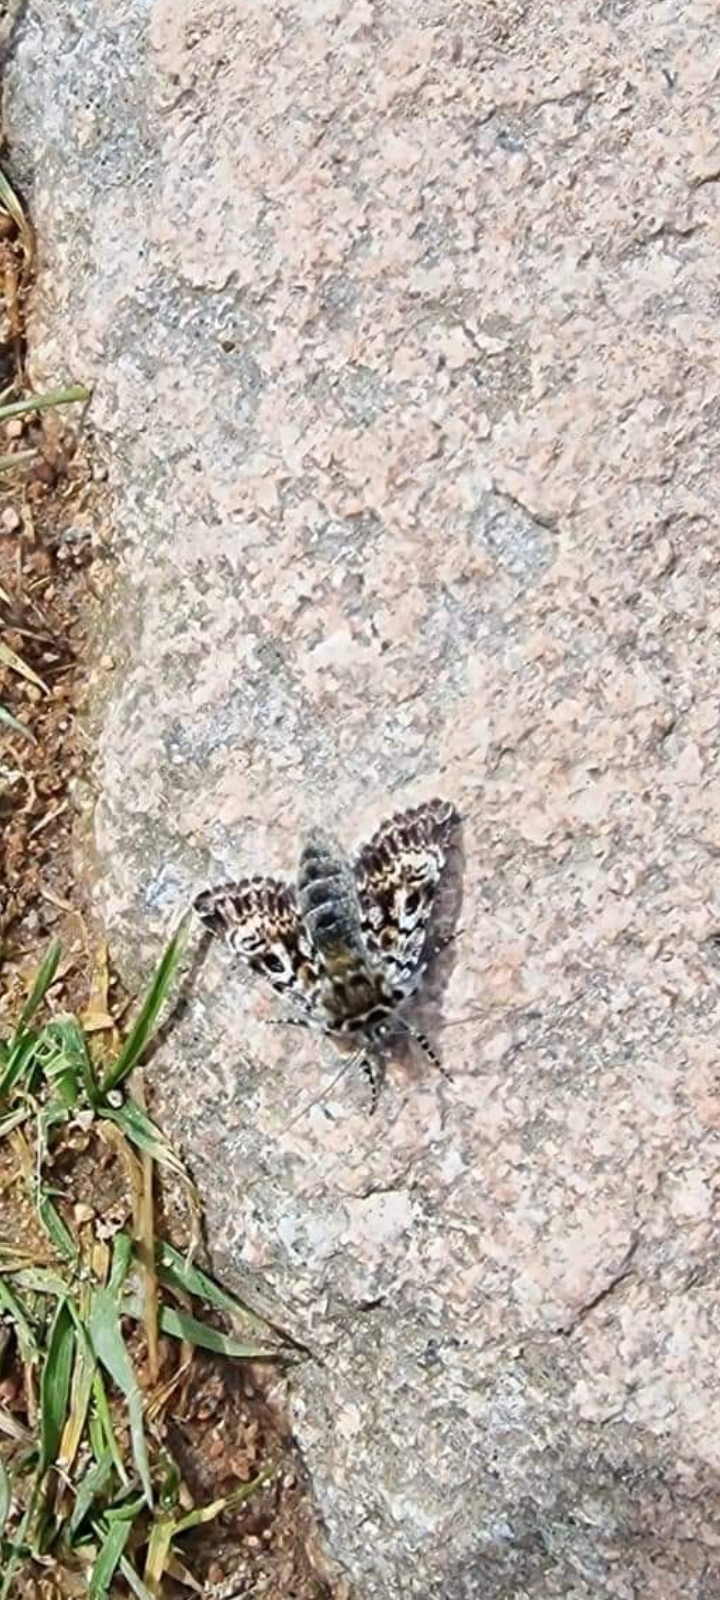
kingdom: Animalia
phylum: Arthropoda
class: Insecta
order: Lepidoptera
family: Noctuidae
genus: Anarta
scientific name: Anarta melanopa
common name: Broad-bordered white underwing
